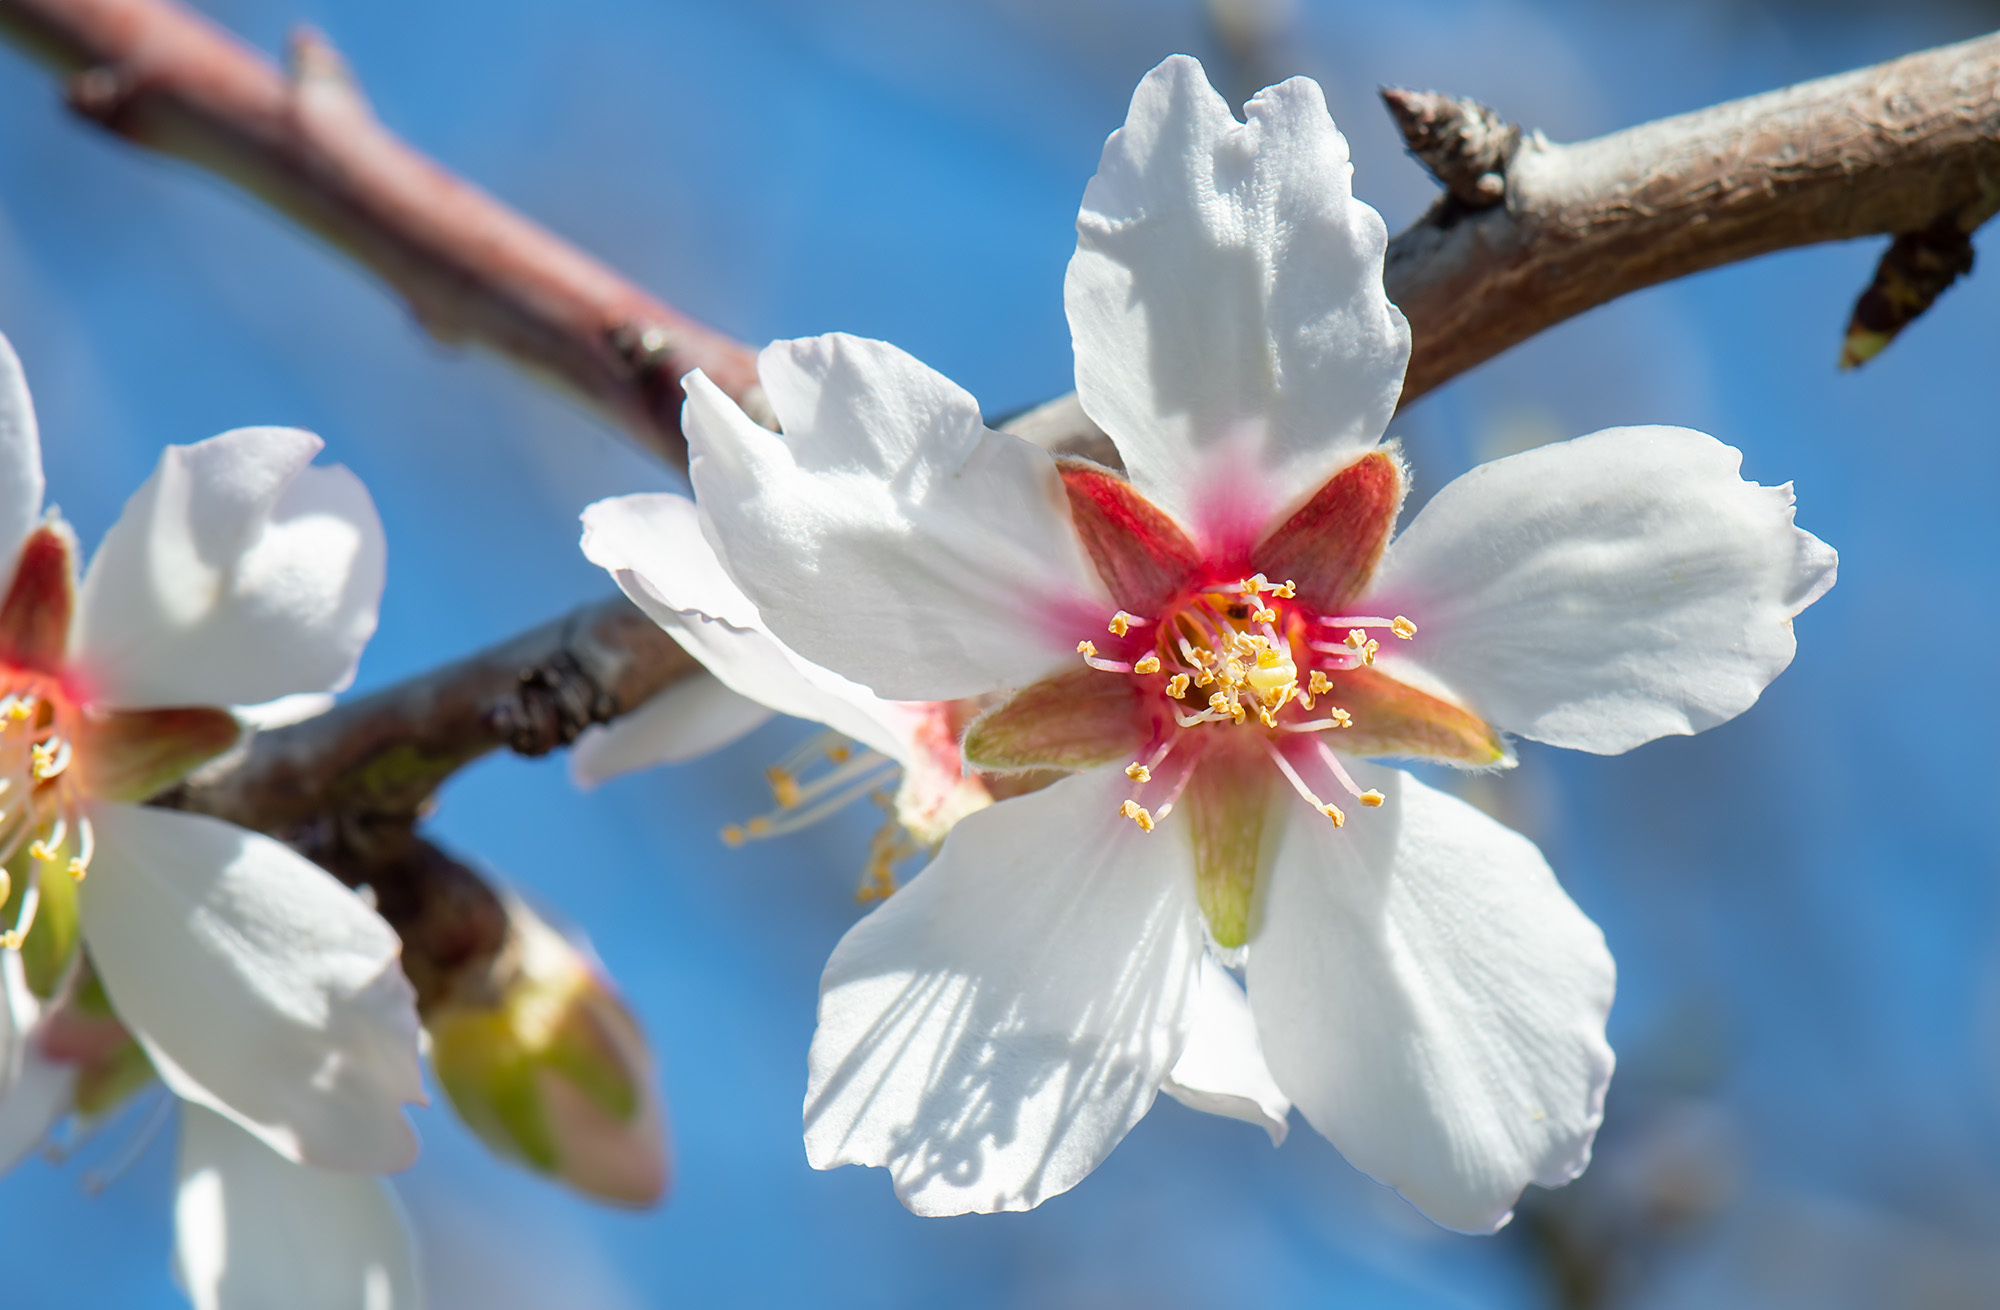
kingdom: Plantae
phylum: Tracheophyta
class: Magnoliopsida
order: Rosales
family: Rosaceae
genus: Prunus
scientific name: Prunus amygdalus
